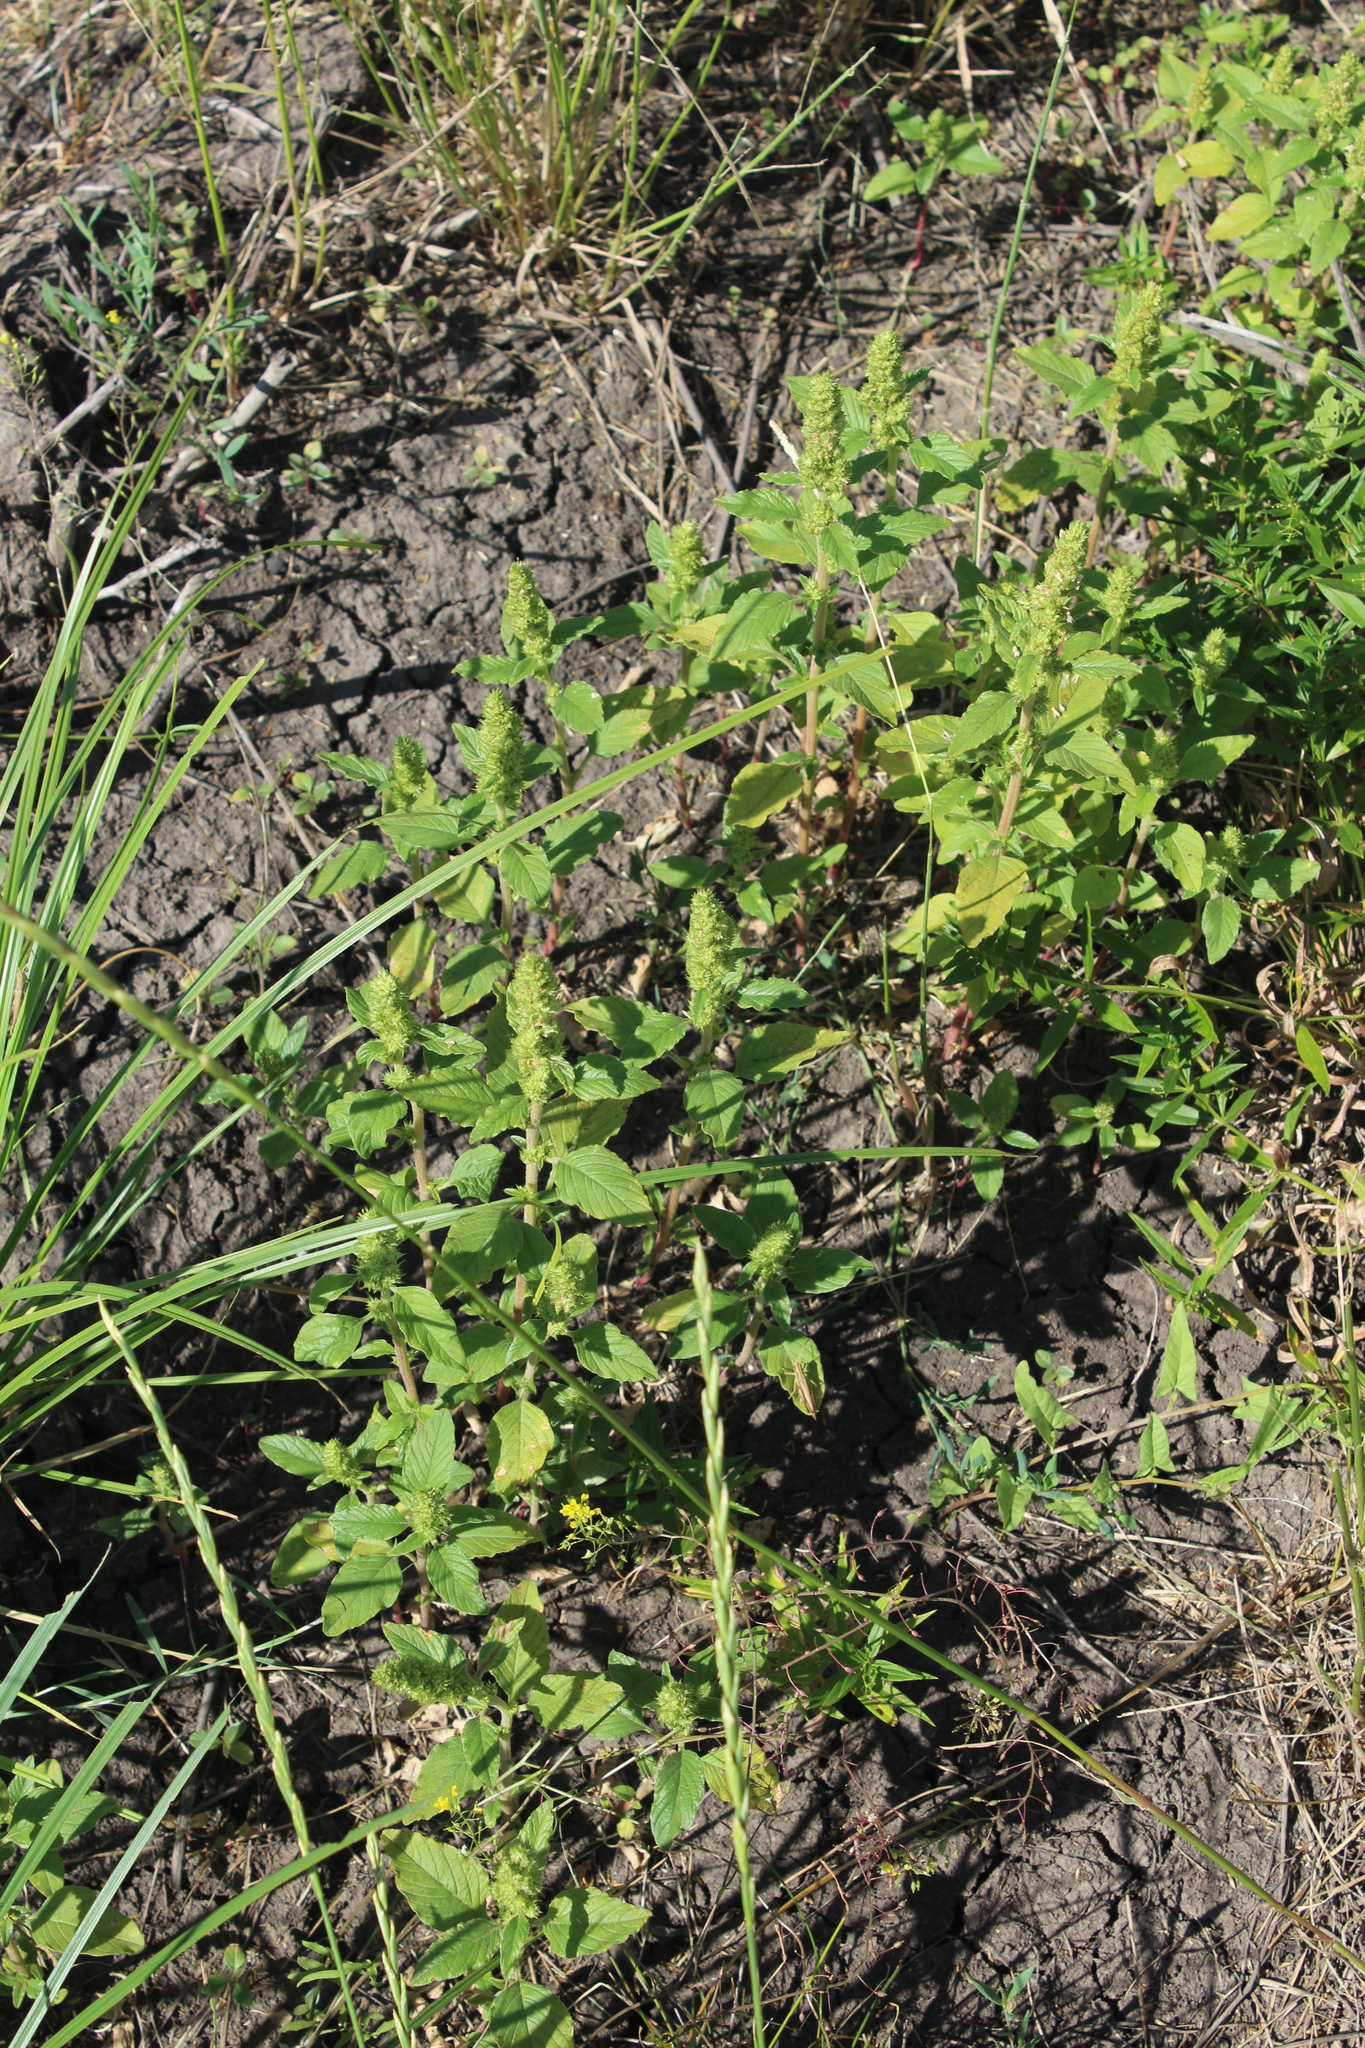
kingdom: Plantae
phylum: Tracheophyta
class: Magnoliopsida
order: Caryophyllales
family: Amaranthaceae
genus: Amaranthus
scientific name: Amaranthus retroflexus
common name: Redroot amaranth
